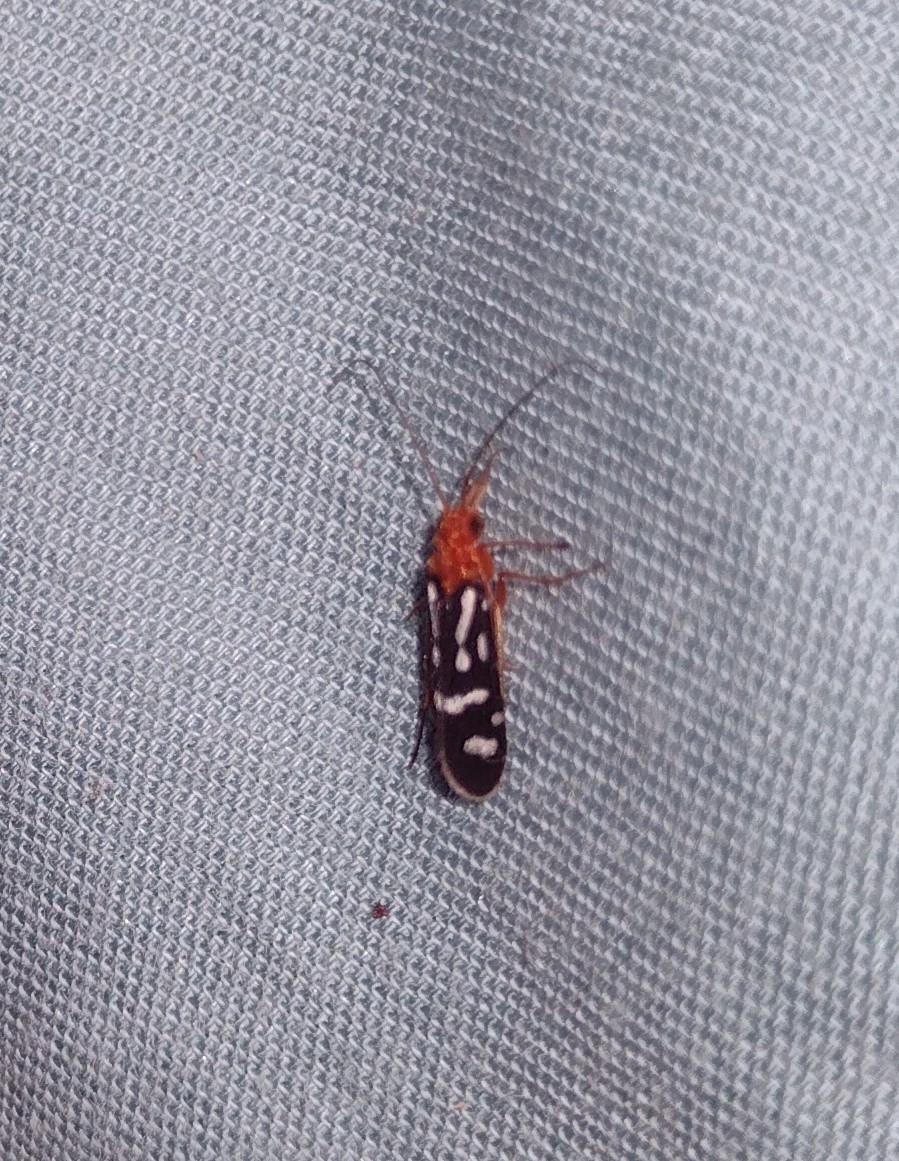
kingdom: Animalia
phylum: Arthropoda
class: Insecta
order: Trichoptera
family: Philopotamidae
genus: Chimarra
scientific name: Chimarra albomaculata
